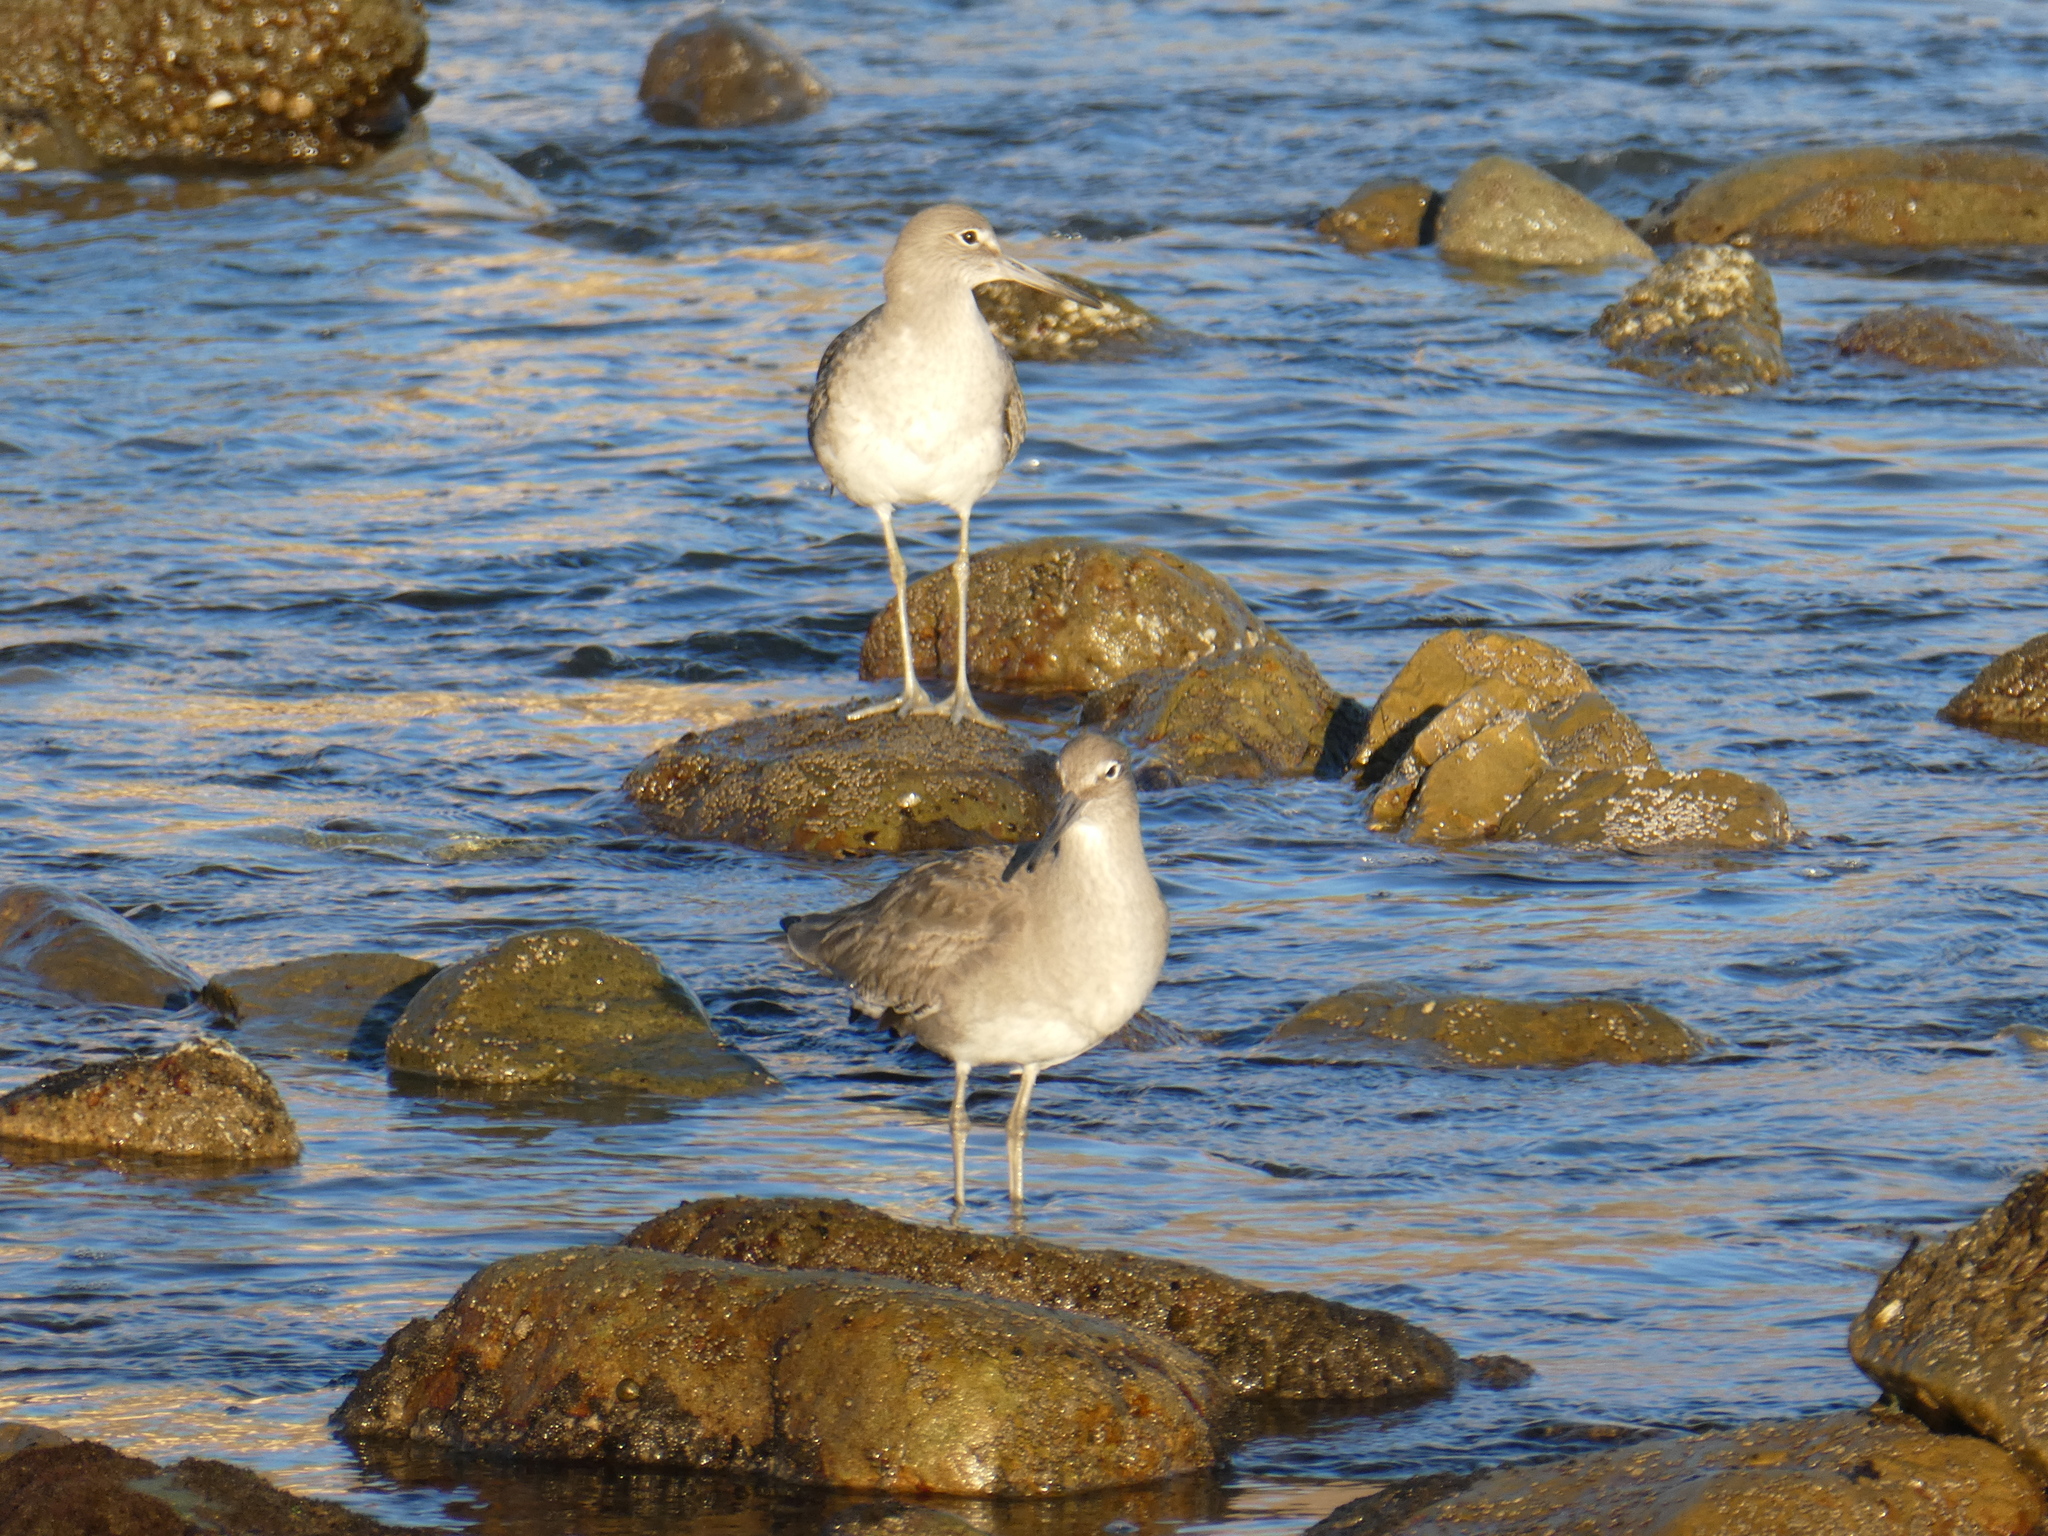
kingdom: Animalia
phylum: Chordata
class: Aves
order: Charadriiformes
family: Scolopacidae
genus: Tringa
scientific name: Tringa semipalmata
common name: Willet
